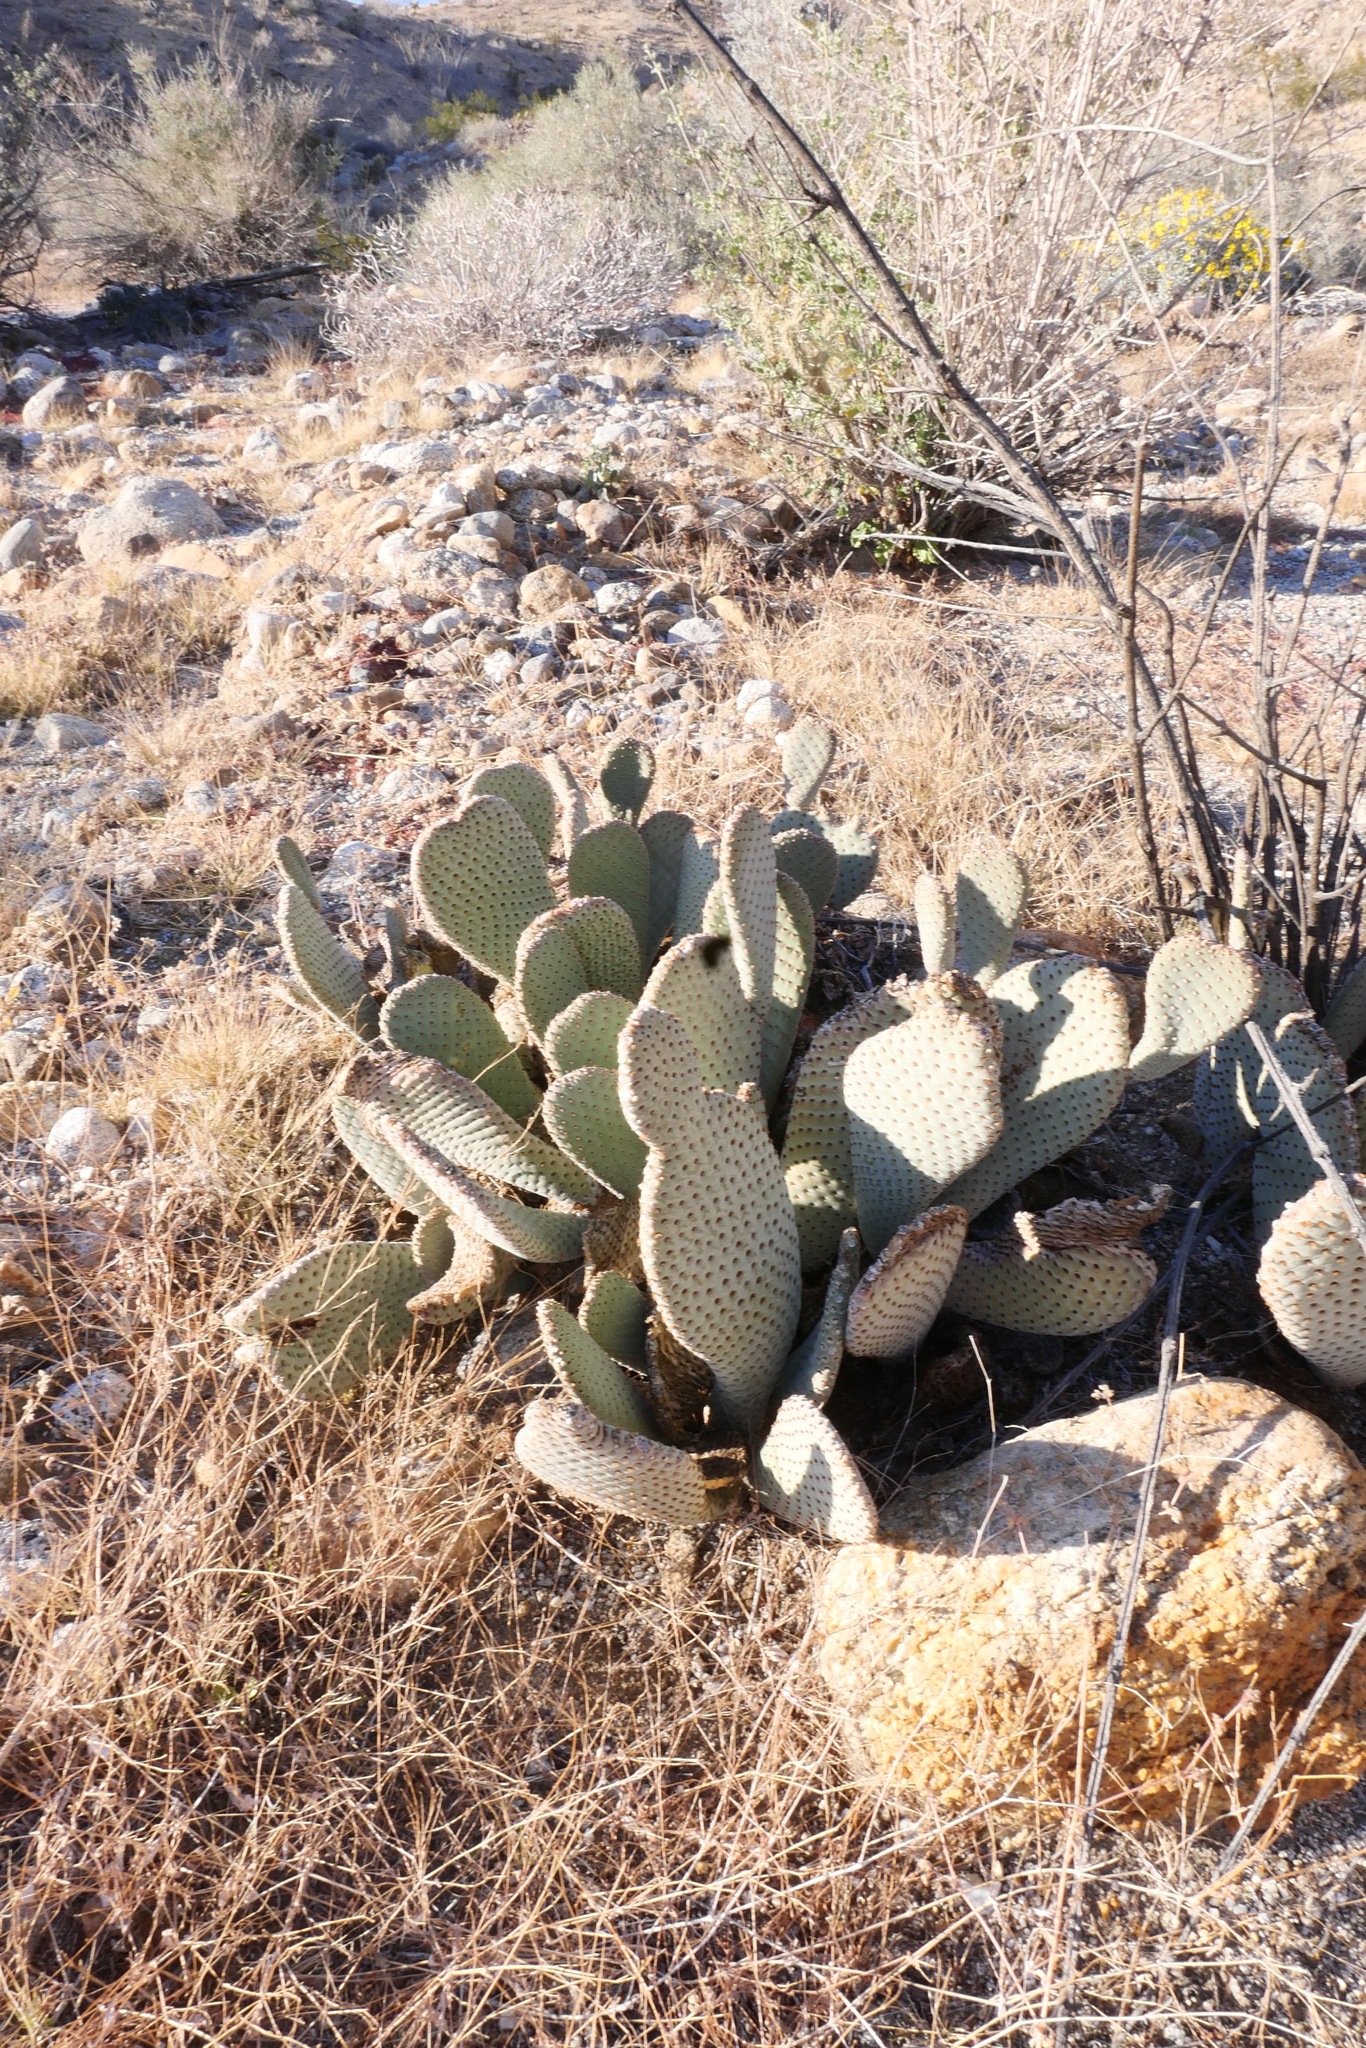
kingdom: Plantae
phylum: Tracheophyta
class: Magnoliopsida
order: Caryophyllales
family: Cactaceae
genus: Opuntia
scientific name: Opuntia basilaris
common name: Beavertail prickly-pear
